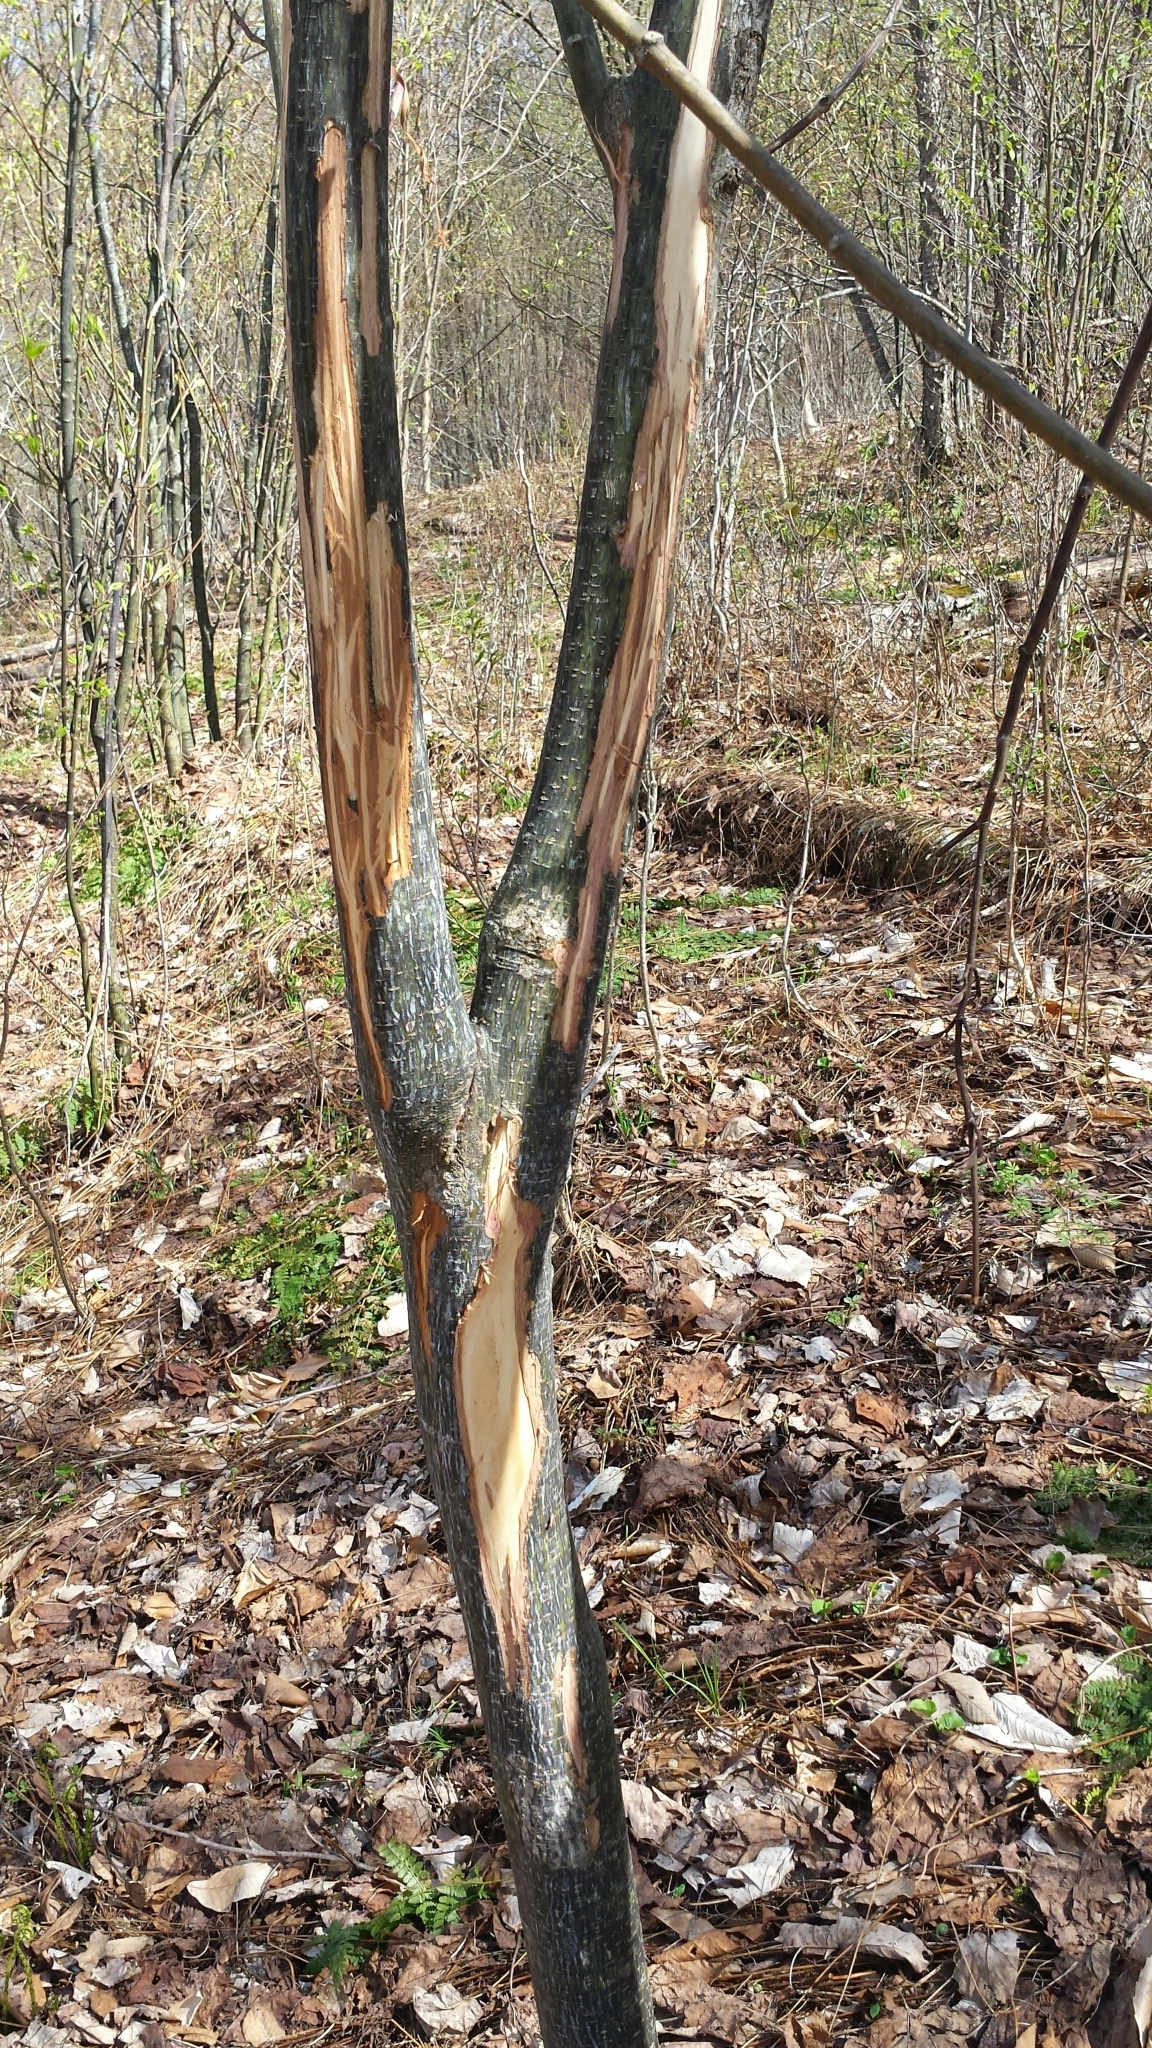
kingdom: Animalia
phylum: Chordata
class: Mammalia
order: Artiodactyla
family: Cervidae
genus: Odocoileus
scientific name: Odocoileus virginianus
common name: White-tailed deer
